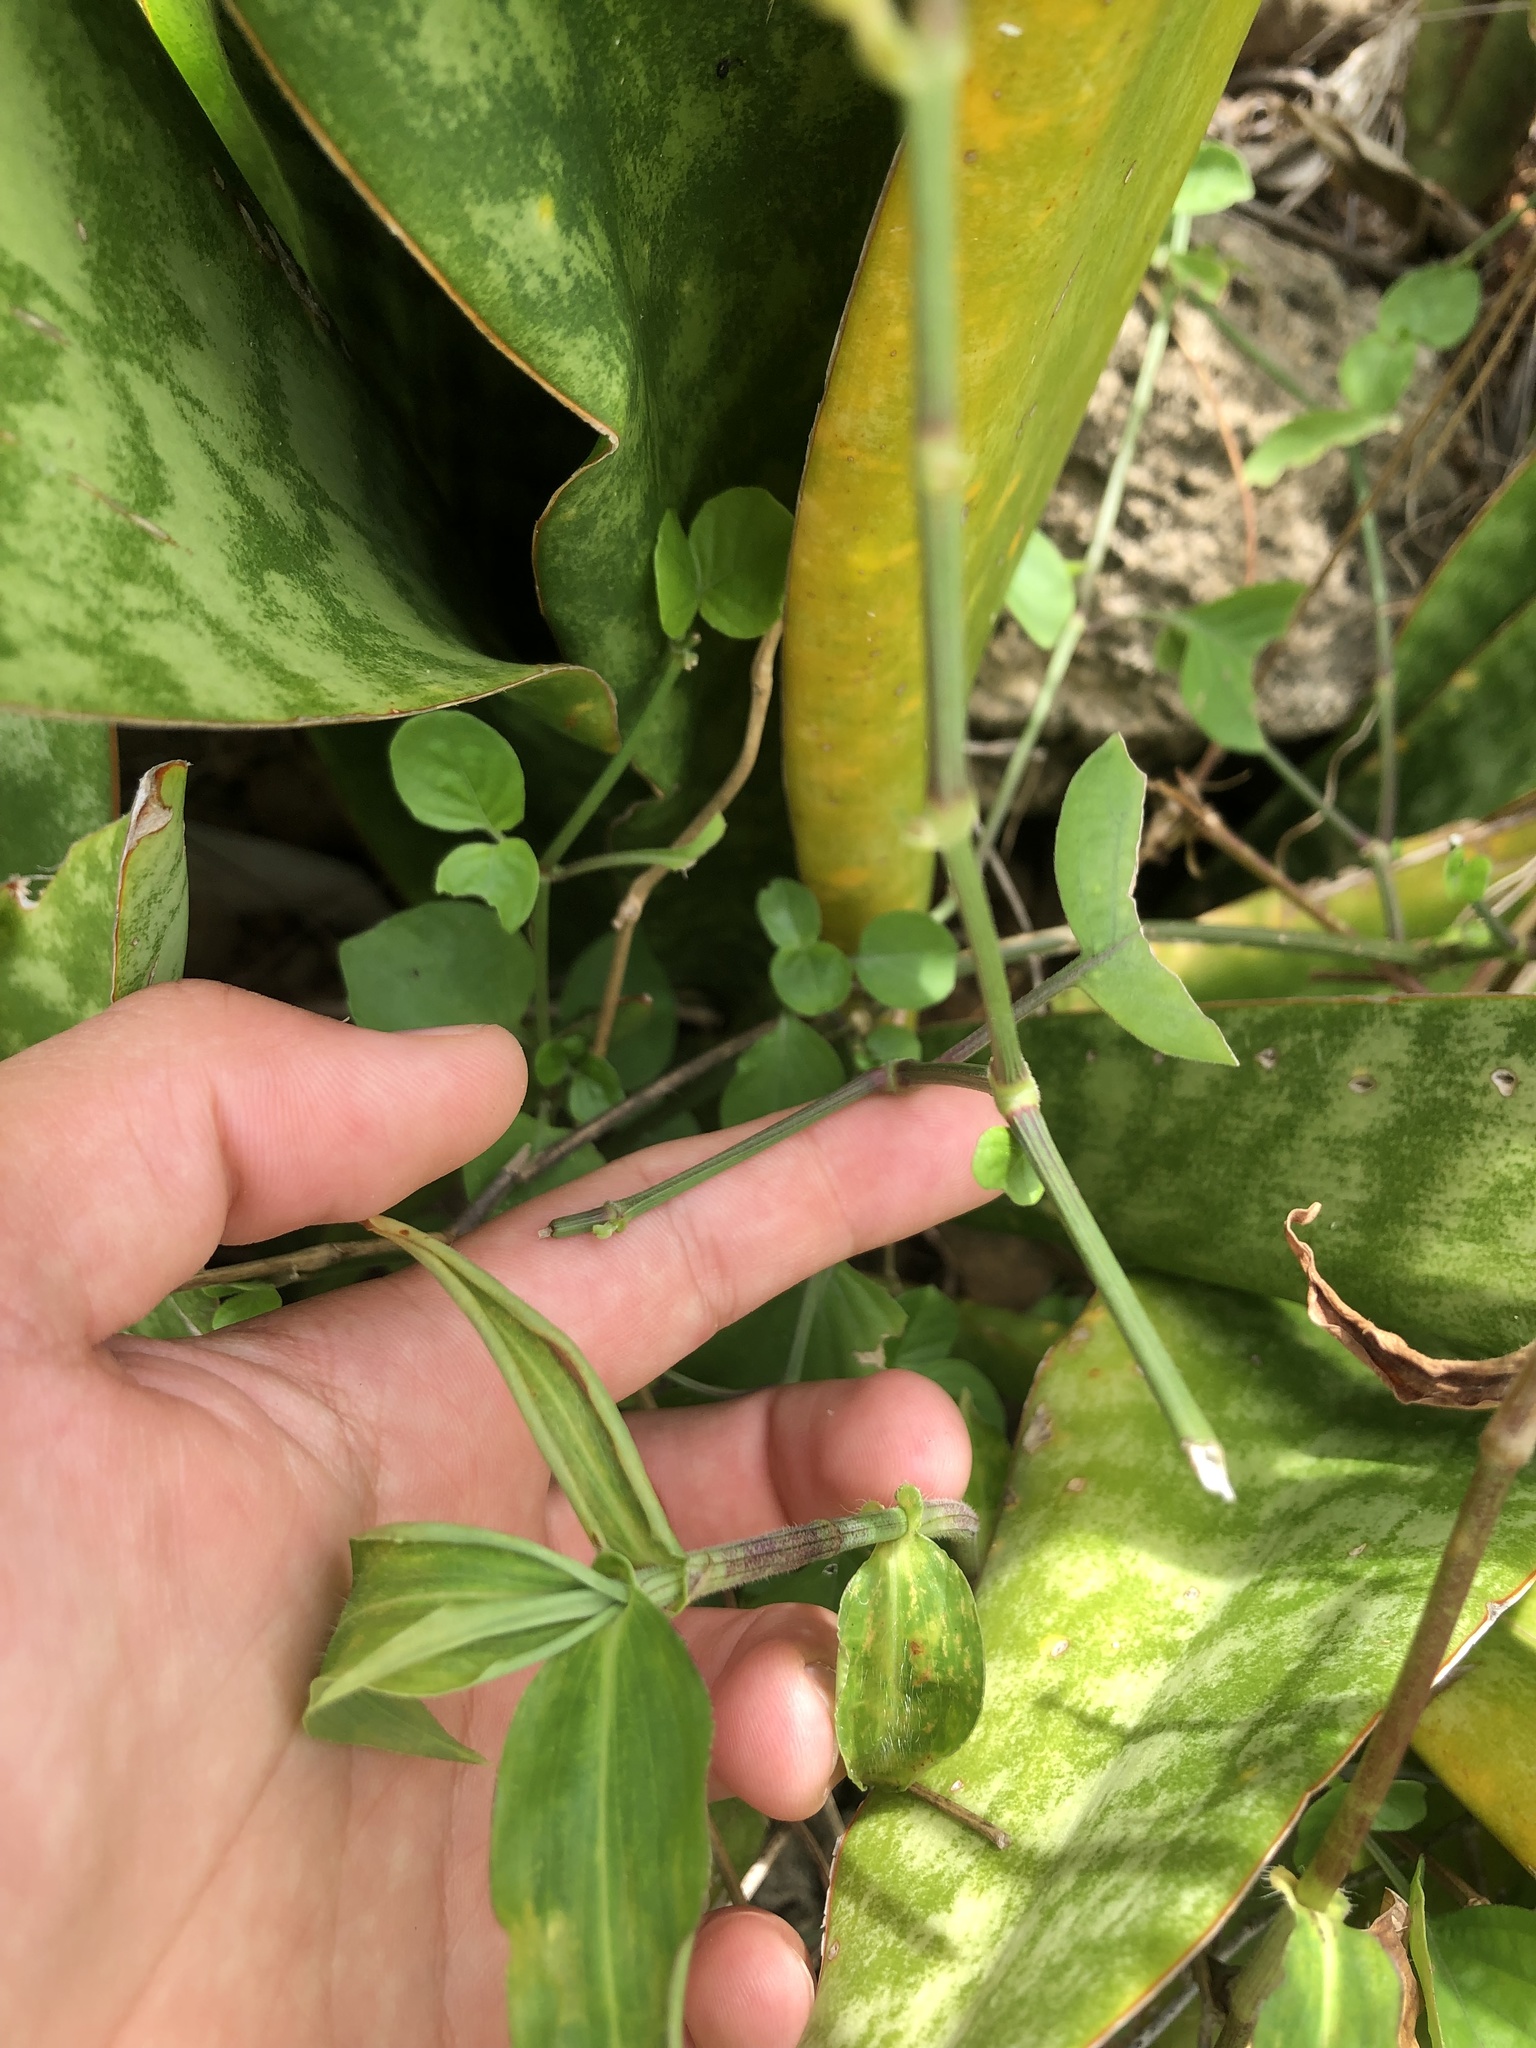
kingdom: Plantae
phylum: Tracheophyta
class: Magnoliopsida
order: Lamiales
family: Acanthaceae
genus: Asystasia
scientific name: Asystasia gangetica
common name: Chinese violet
